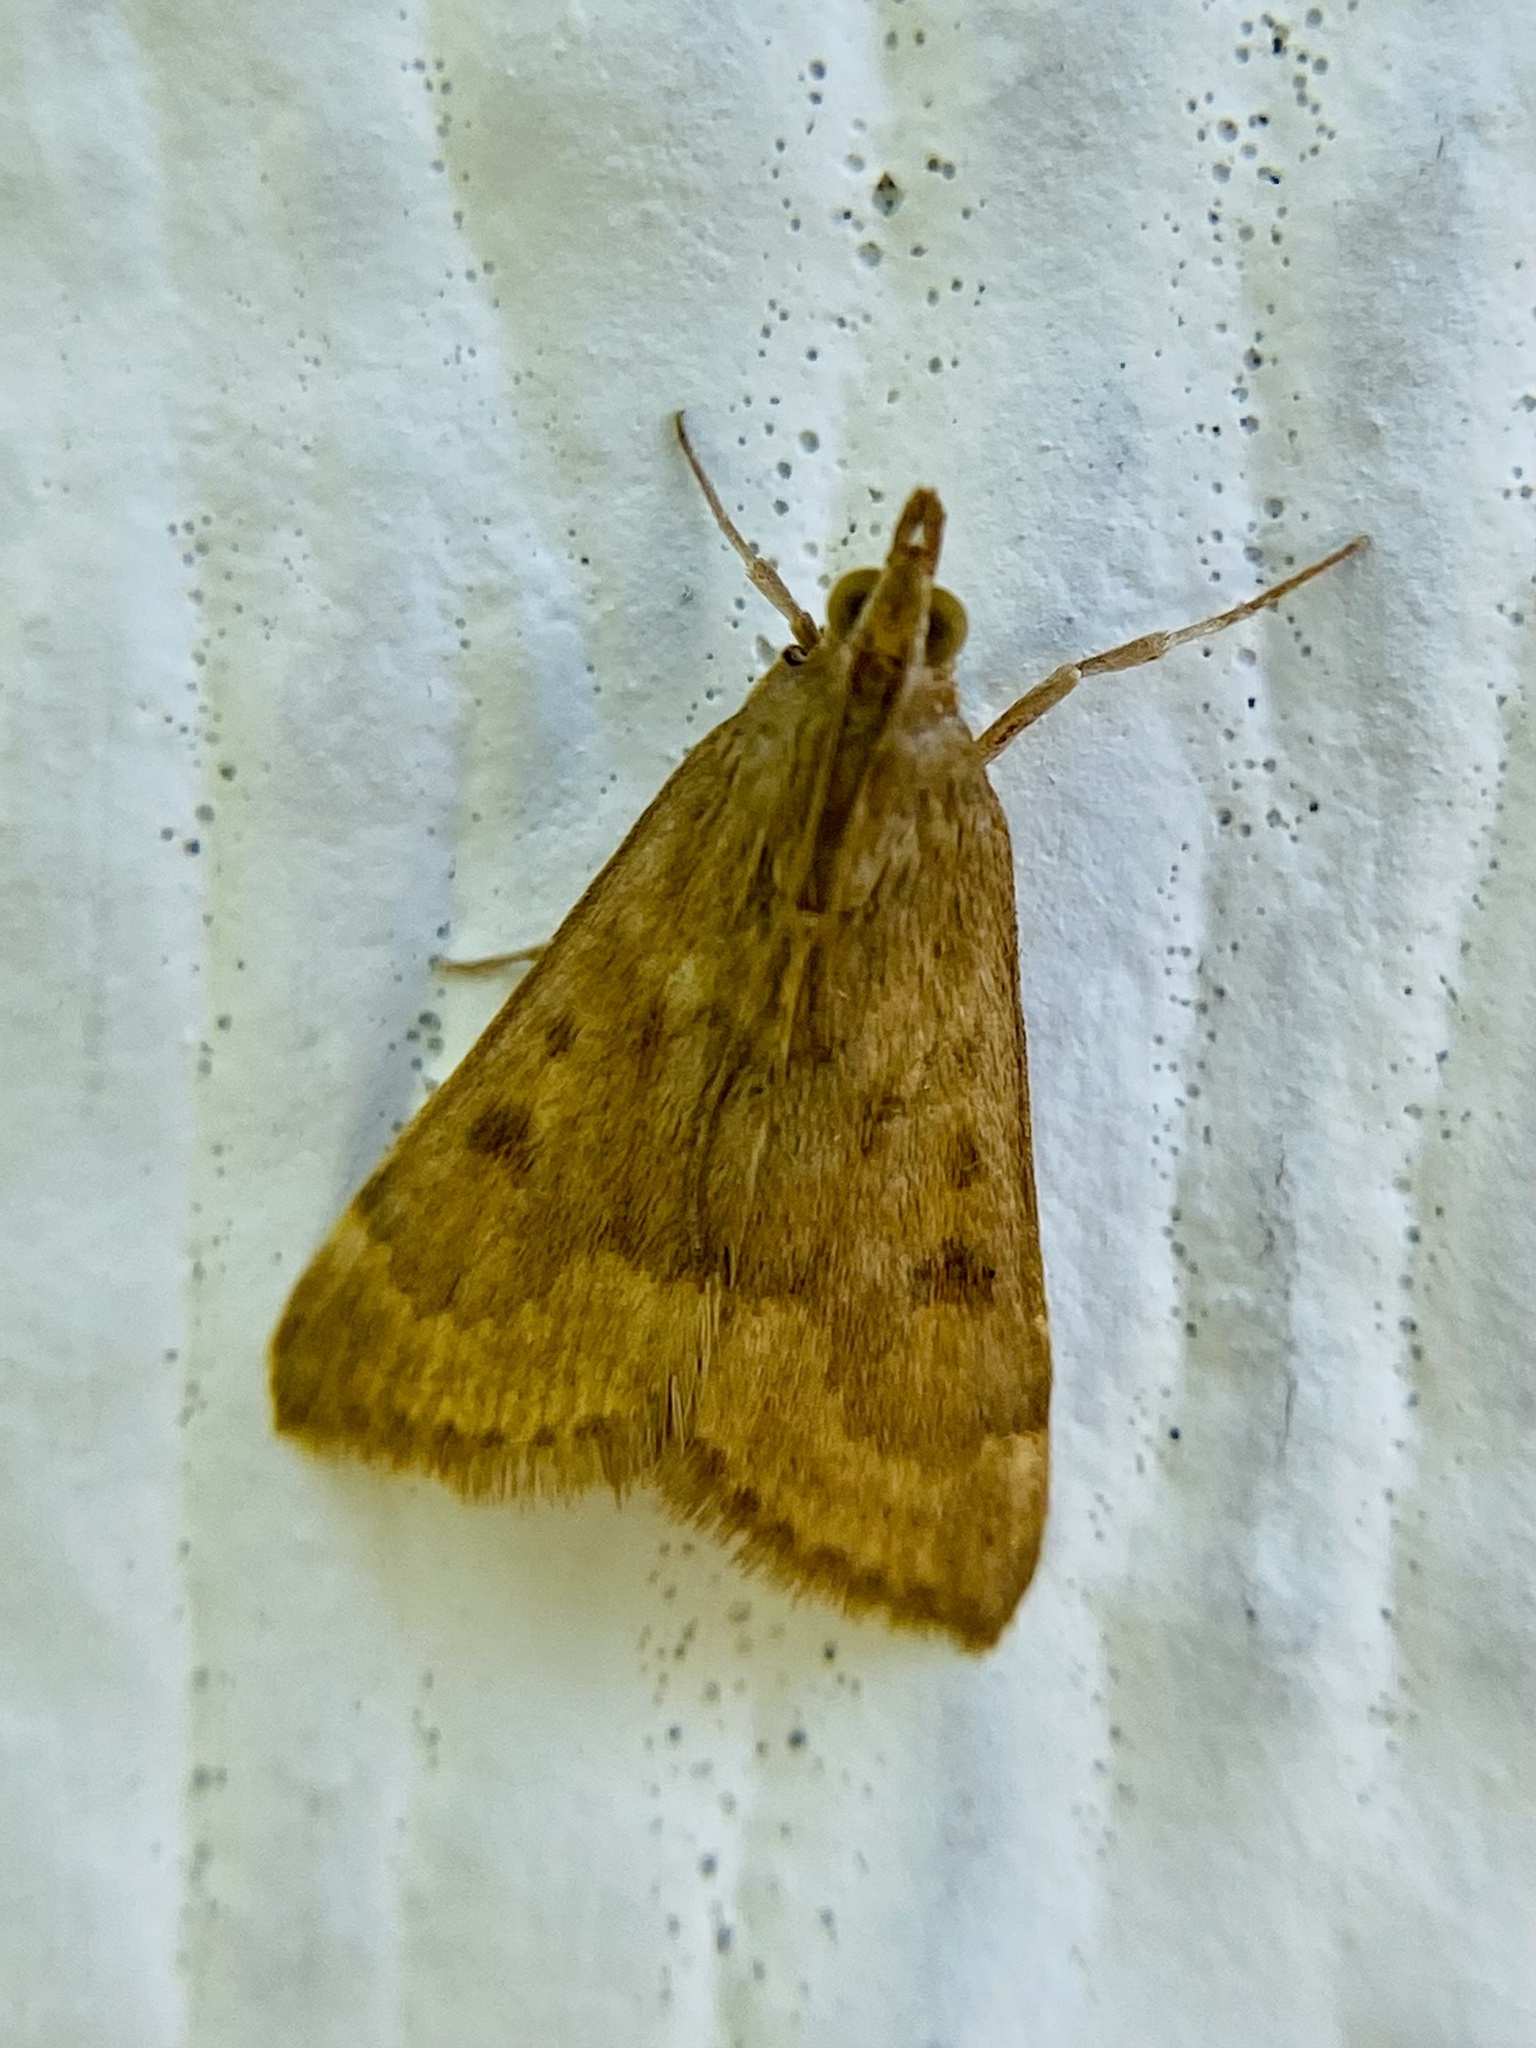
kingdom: Animalia
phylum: Arthropoda
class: Insecta
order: Lepidoptera
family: Crambidae
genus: Achyra
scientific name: Achyra rantalis
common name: Garden webworm
